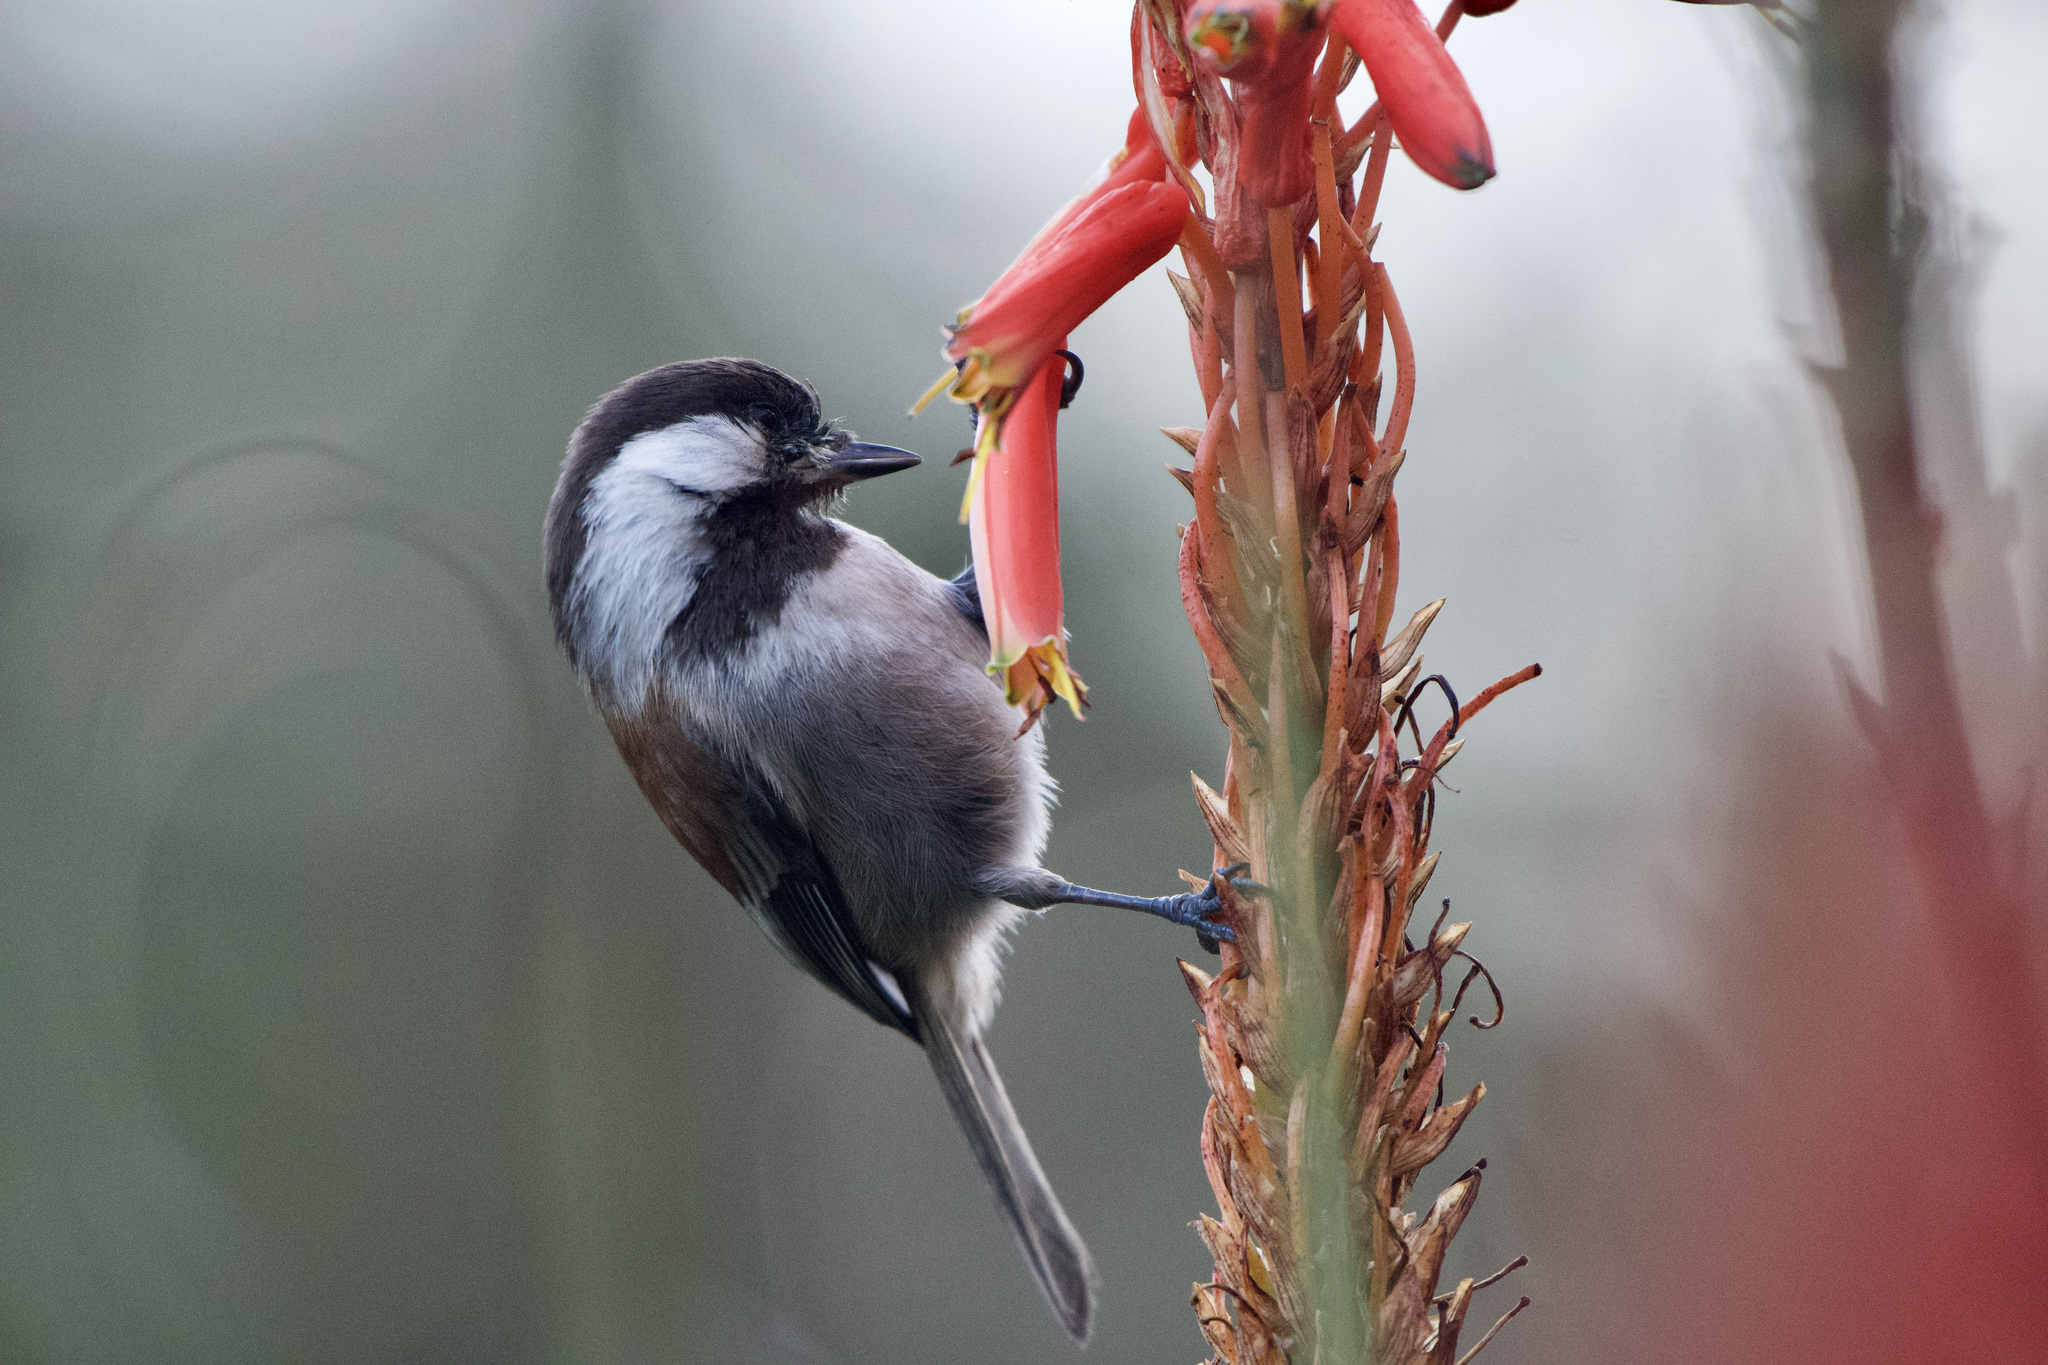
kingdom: Animalia
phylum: Chordata
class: Aves
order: Passeriformes
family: Paridae
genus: Poecile
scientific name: Poecile rufescens
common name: Chestnut-backed chickadee
